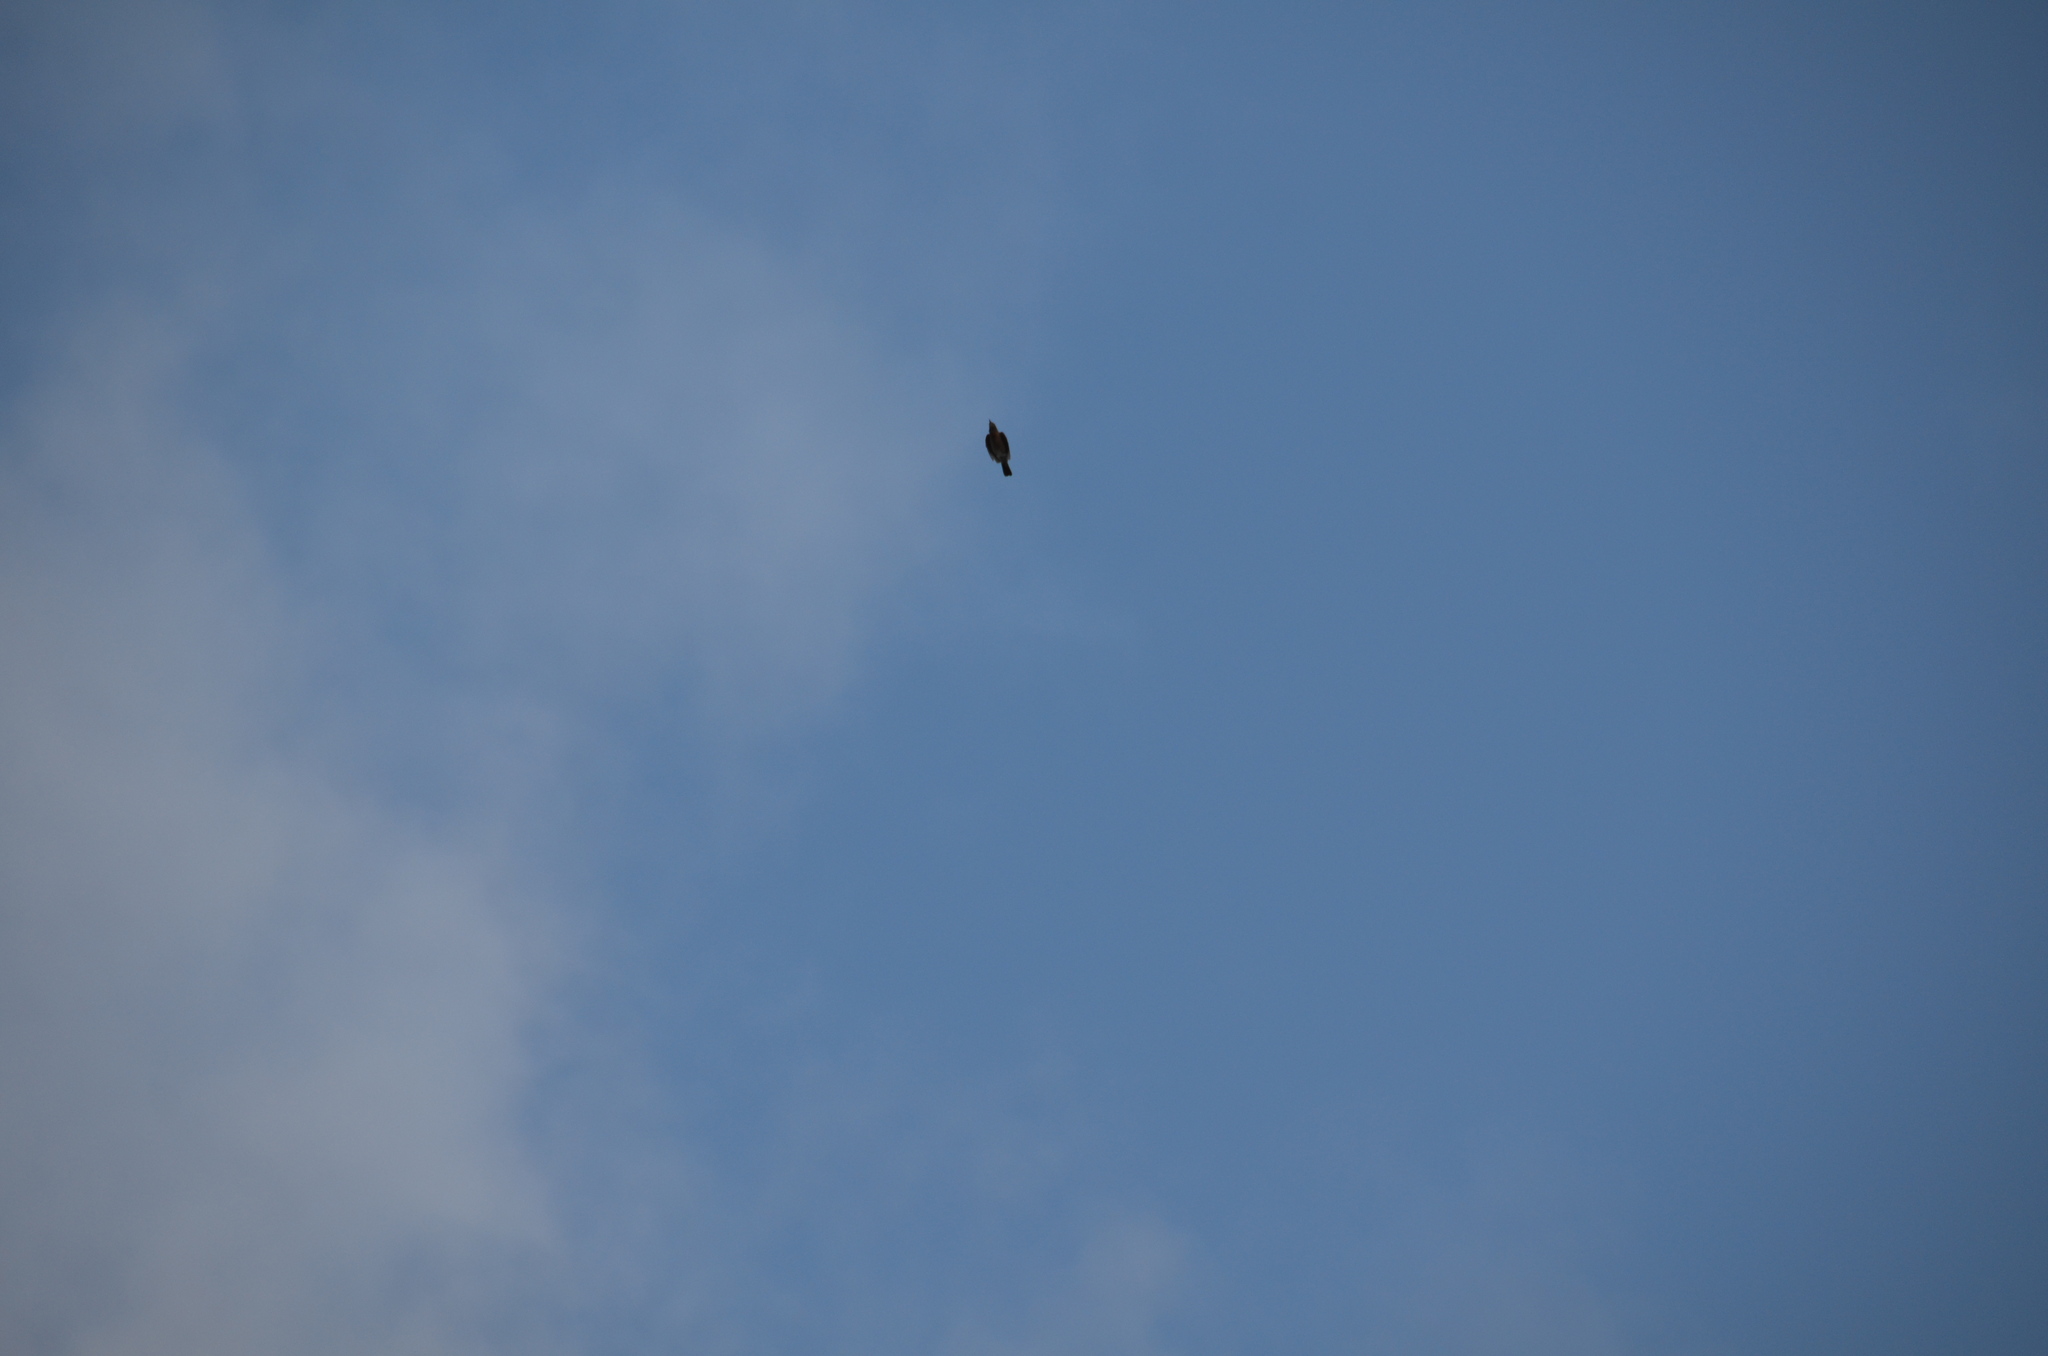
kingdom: Animalia
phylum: Chordata
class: Aves
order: Passeriformes
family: Turdidae
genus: Turdus
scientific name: Turdus migratorius
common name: American robin
